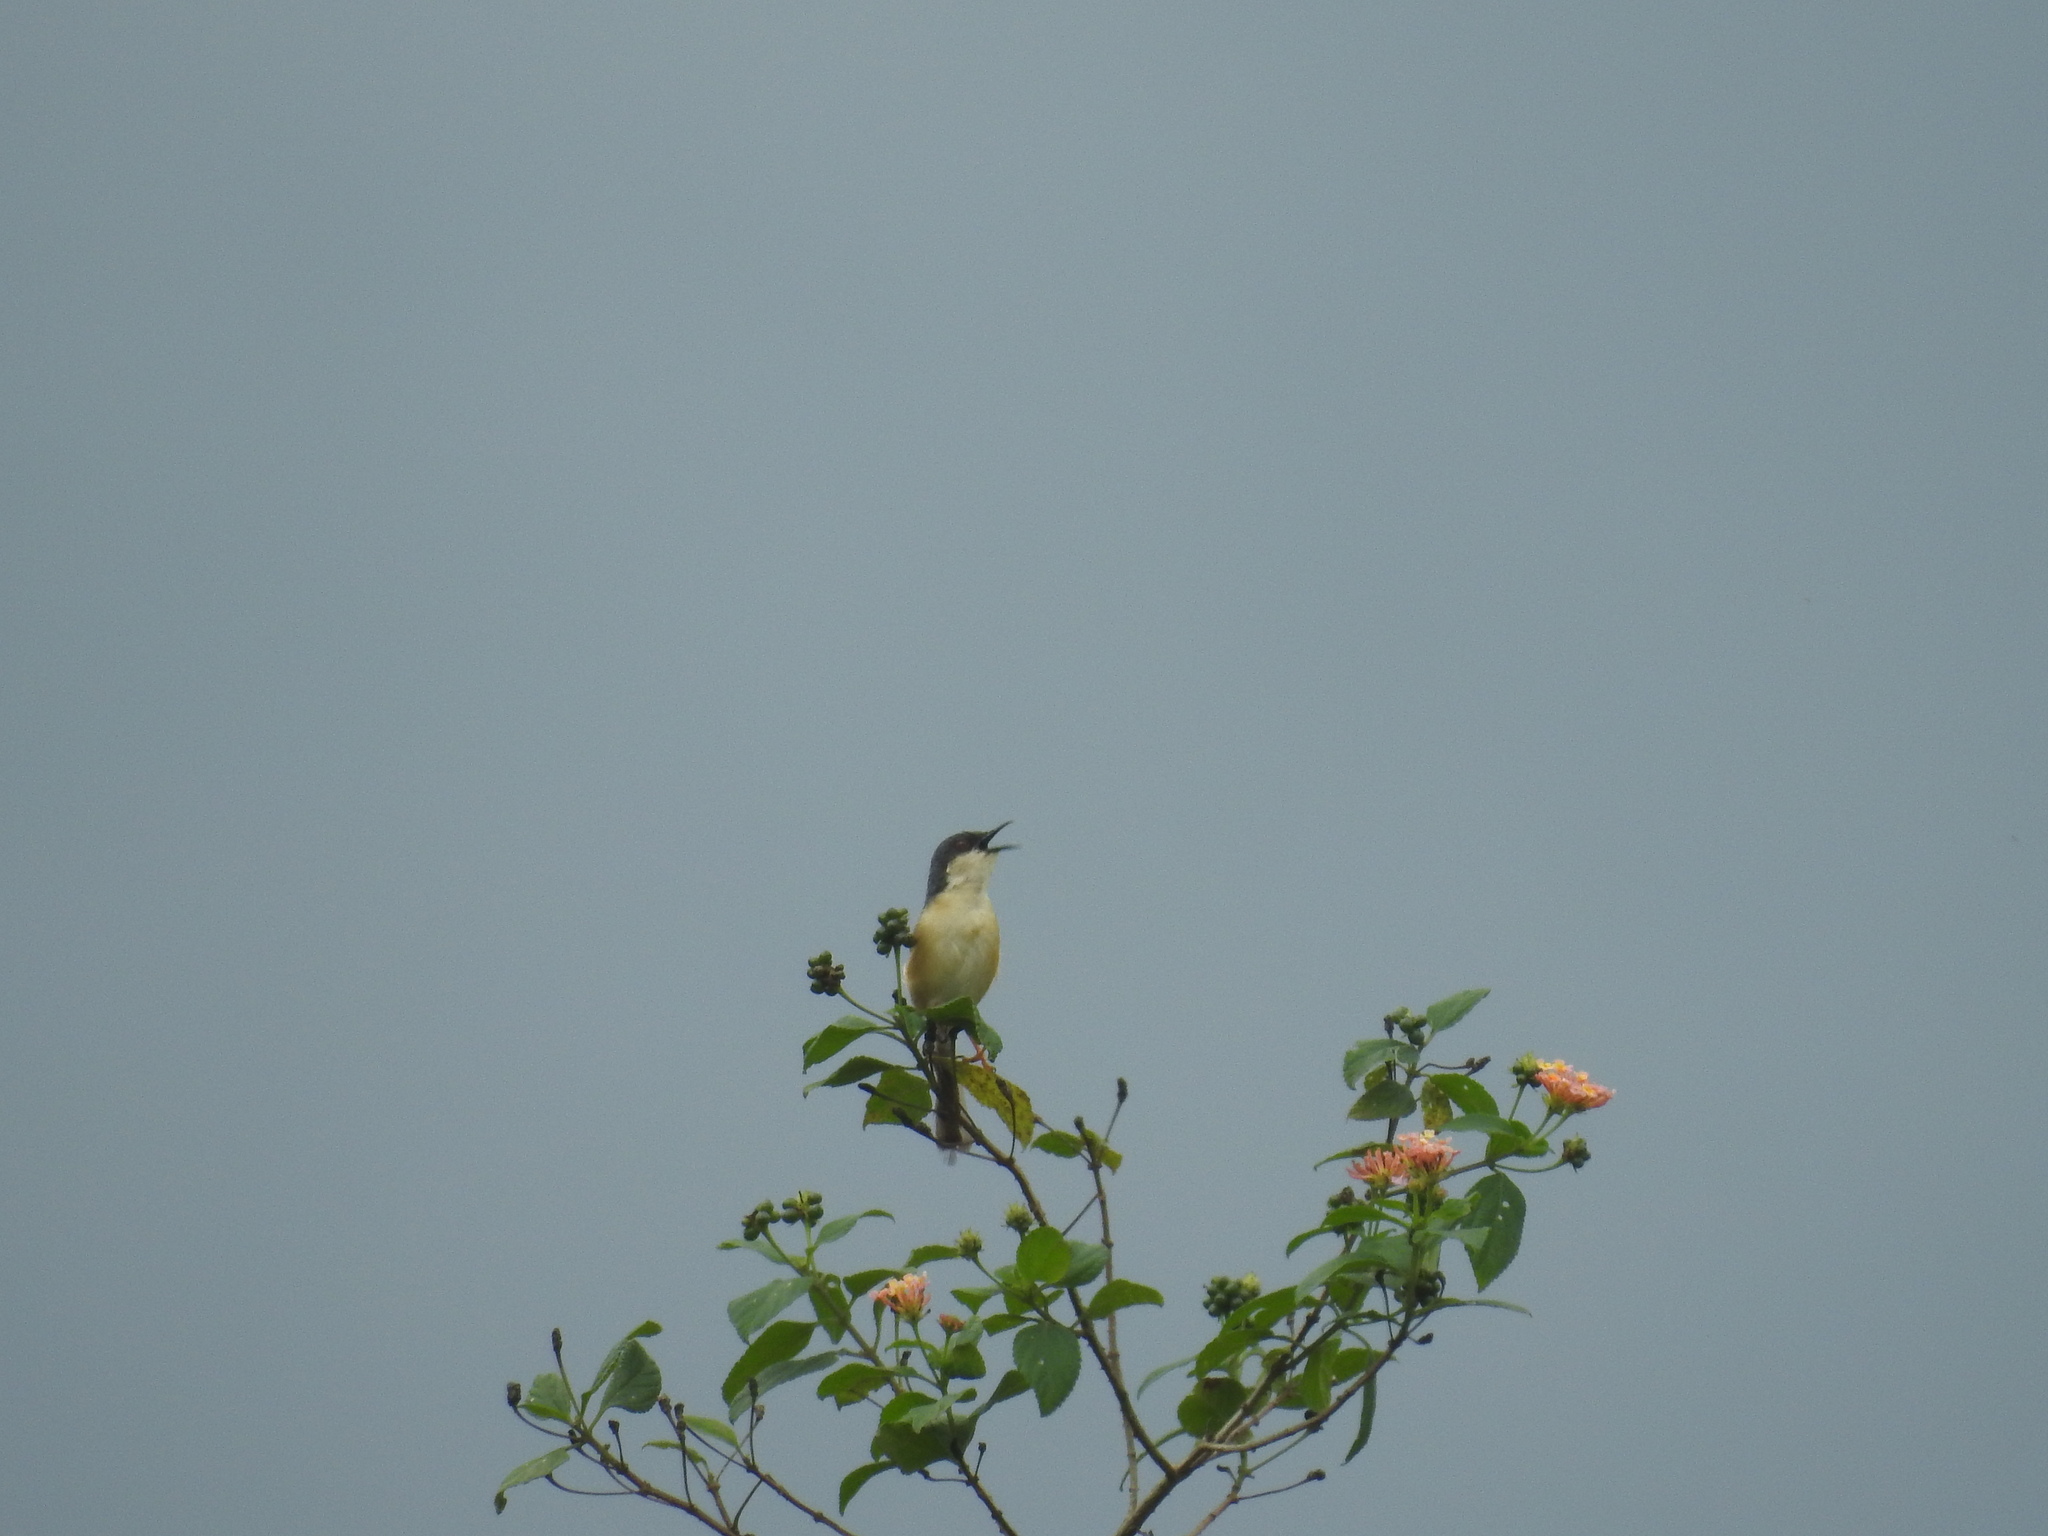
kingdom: Animalia
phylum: Chordata
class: Aves
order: Passeriformes
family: Cisticolidae
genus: Prinia
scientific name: Prinia socialis
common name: Ashy prinia
